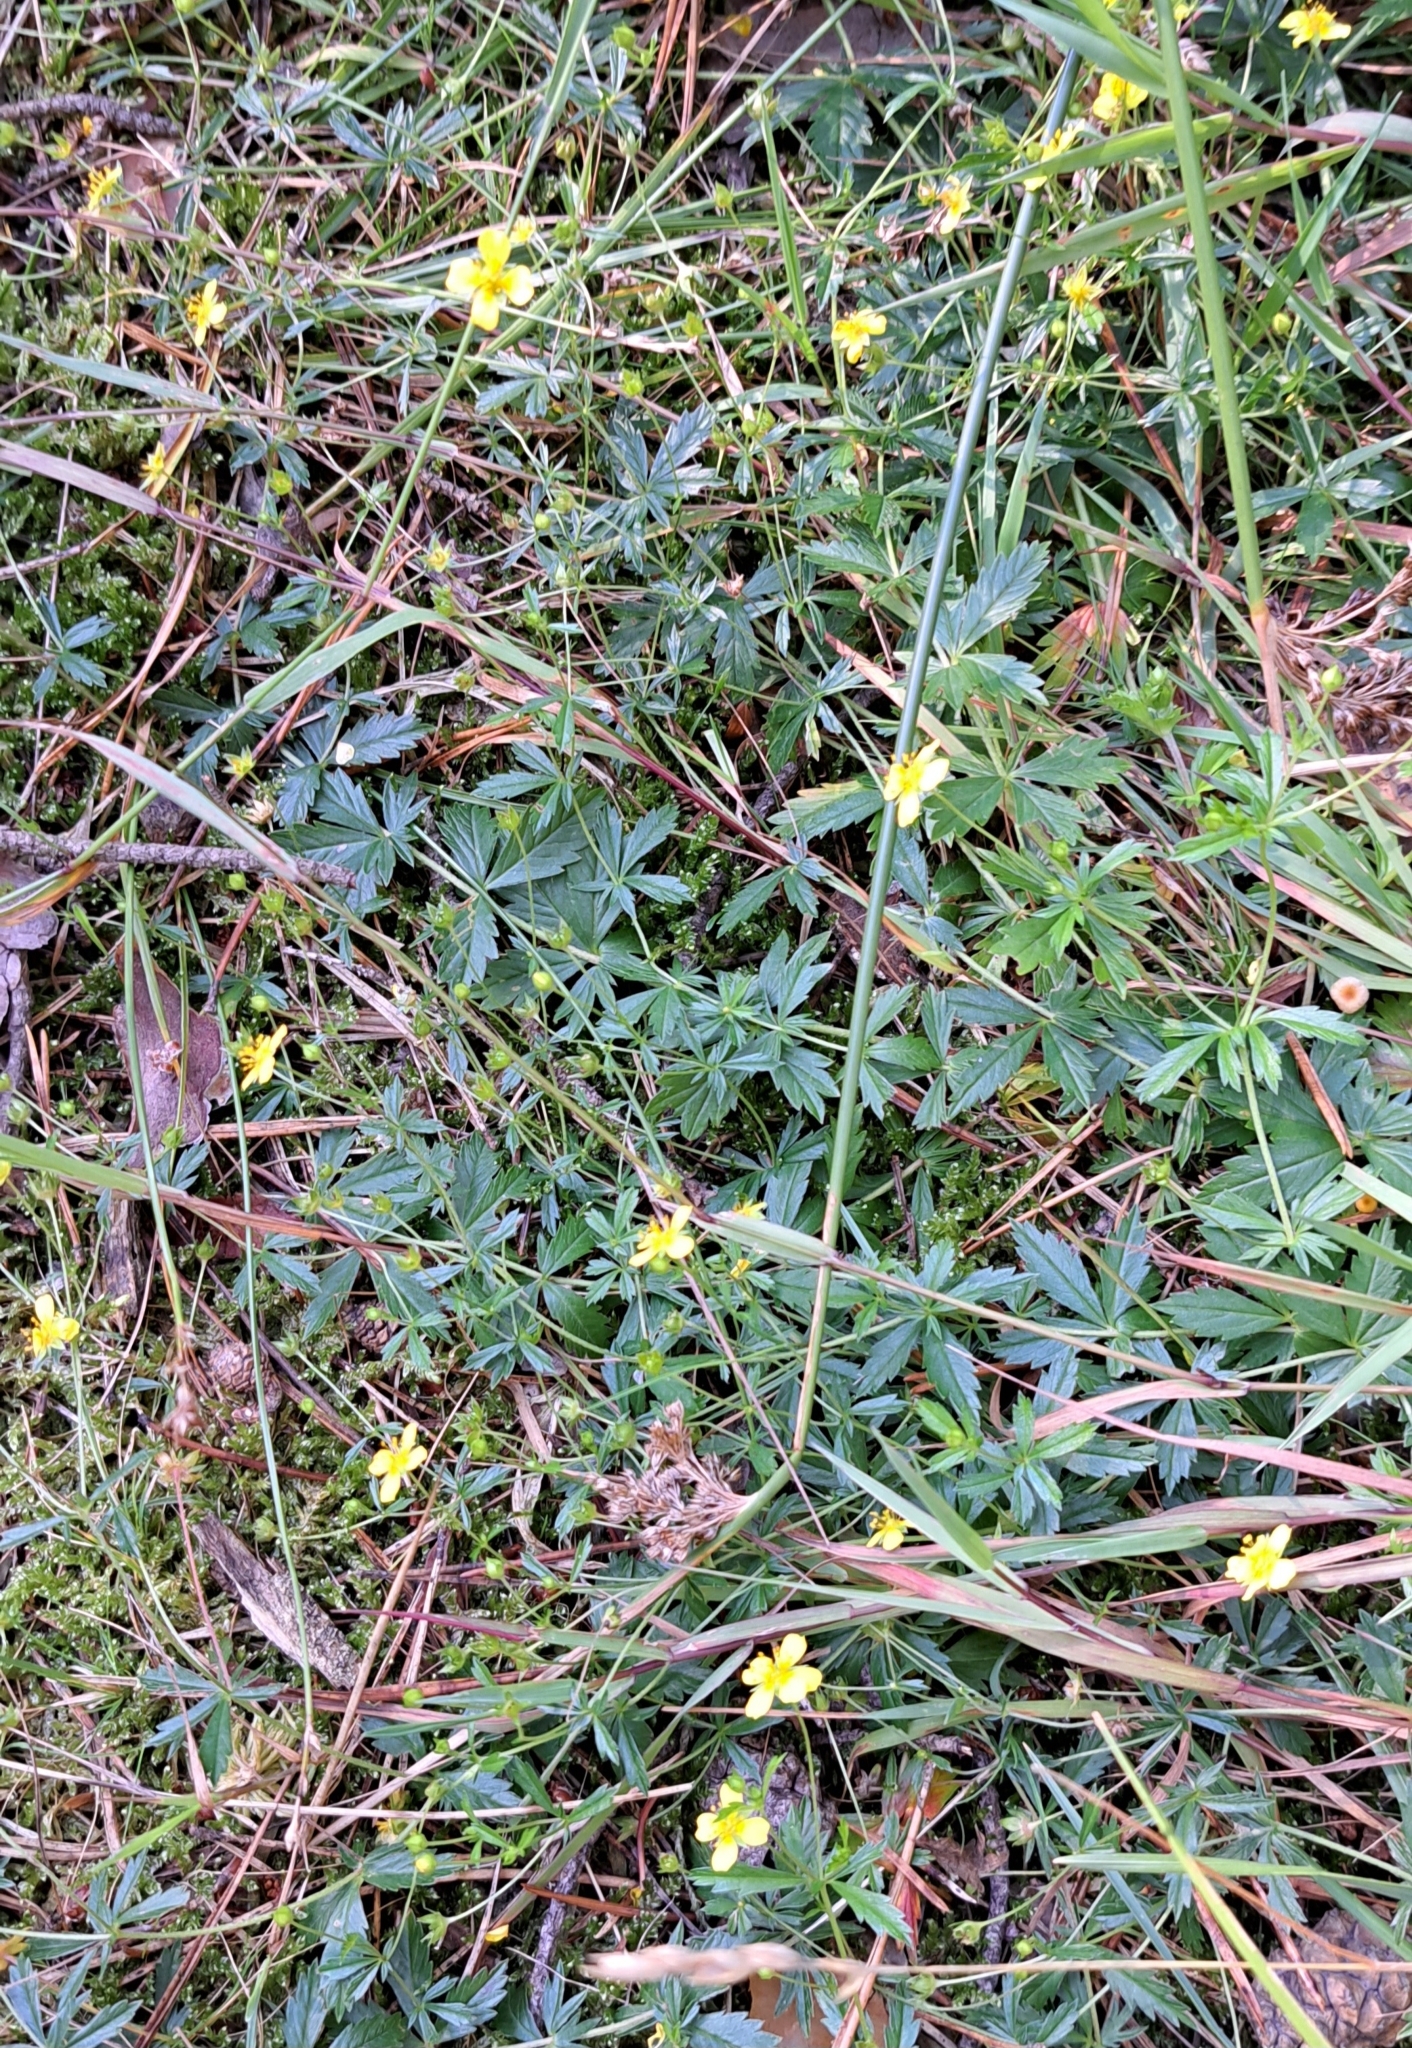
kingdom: Plantae
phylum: Tracheophyta
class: Magnoliopsida
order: Rosales
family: Rosaceae
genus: Potentilla
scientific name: Potentilla erecta
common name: Tormentil
